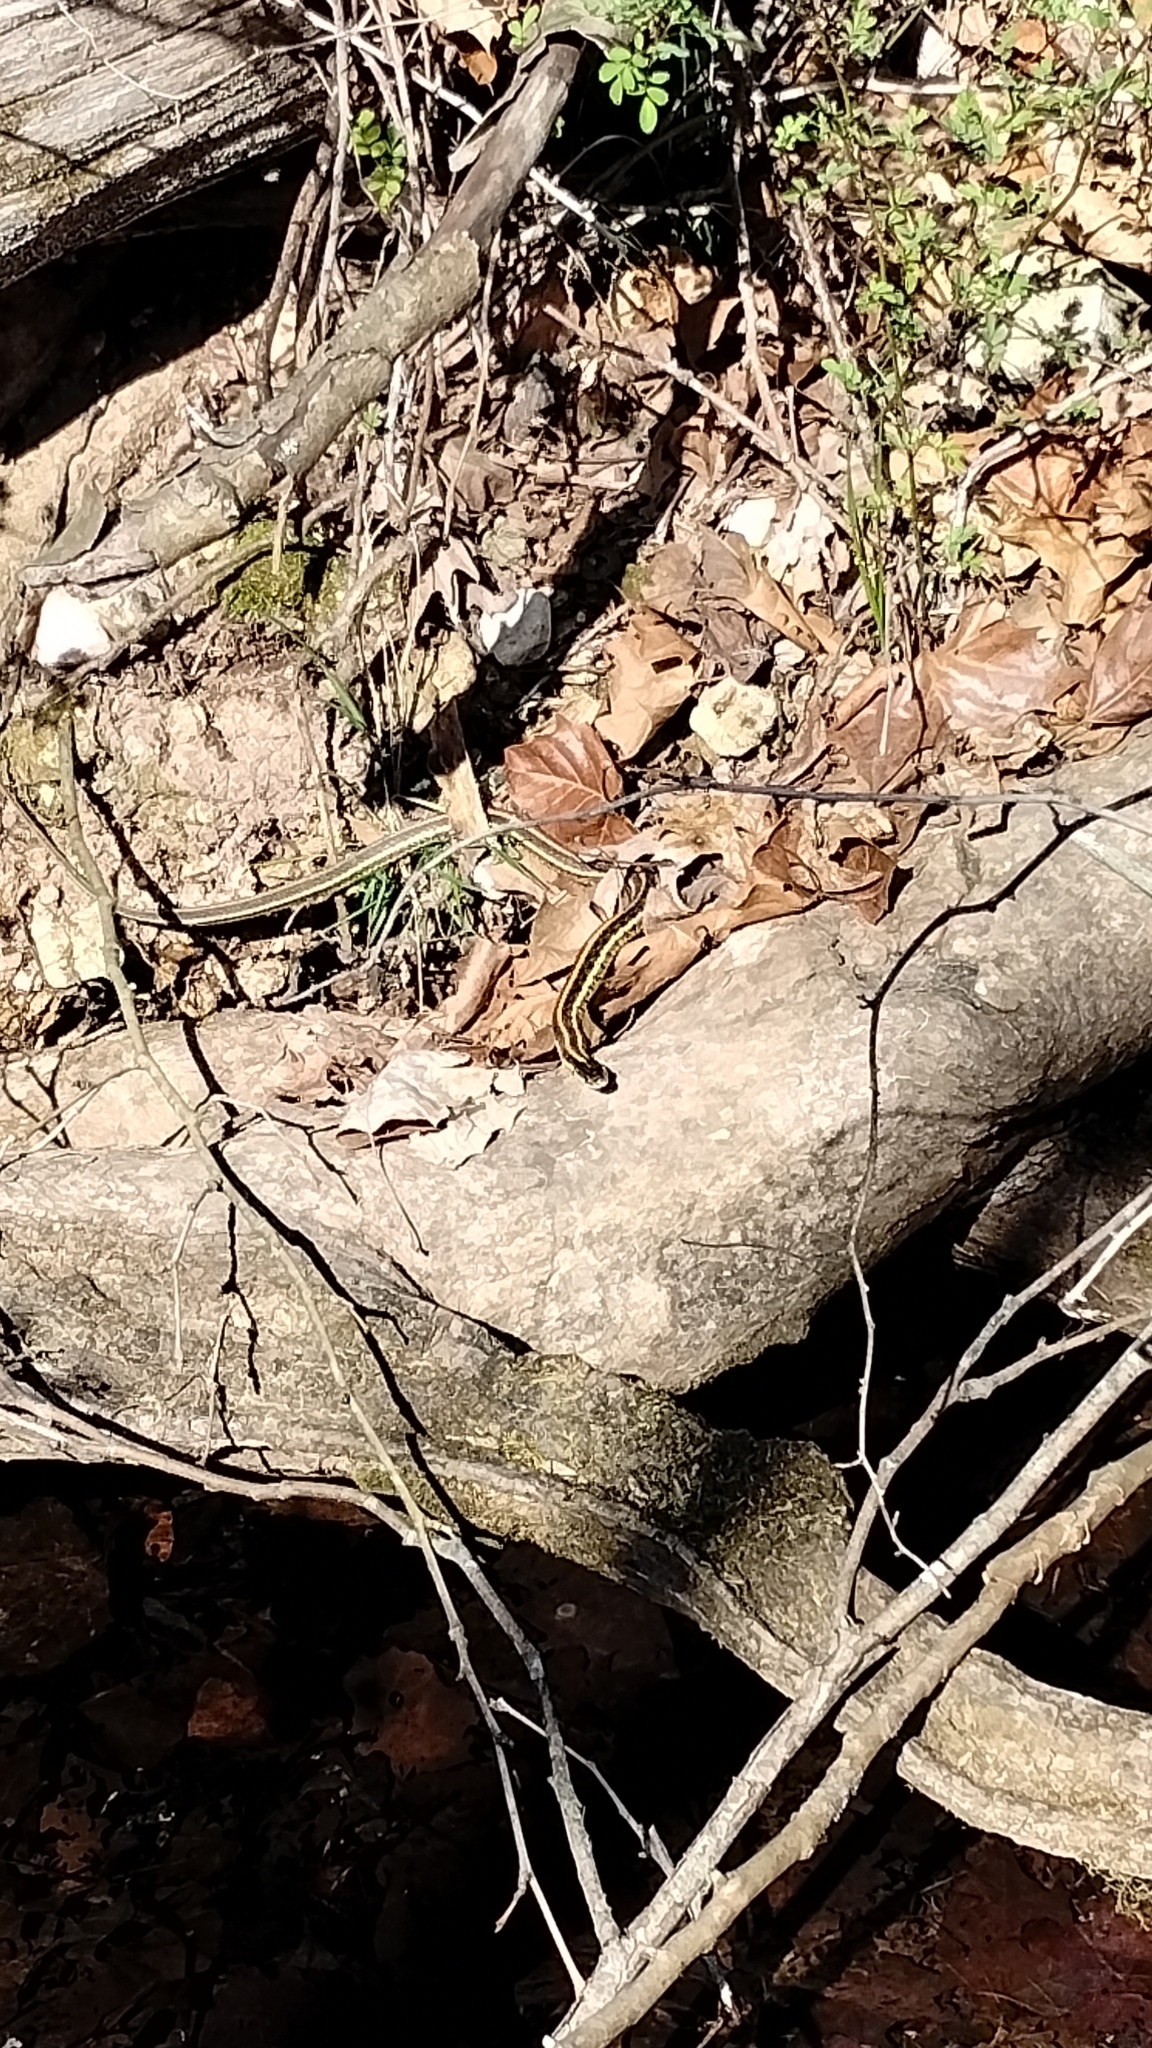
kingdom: Animalia
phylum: Chordata
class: Squamata
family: Colubridae
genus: Thamnophis
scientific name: Thamnophis sirtalis
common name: Common garter snake
